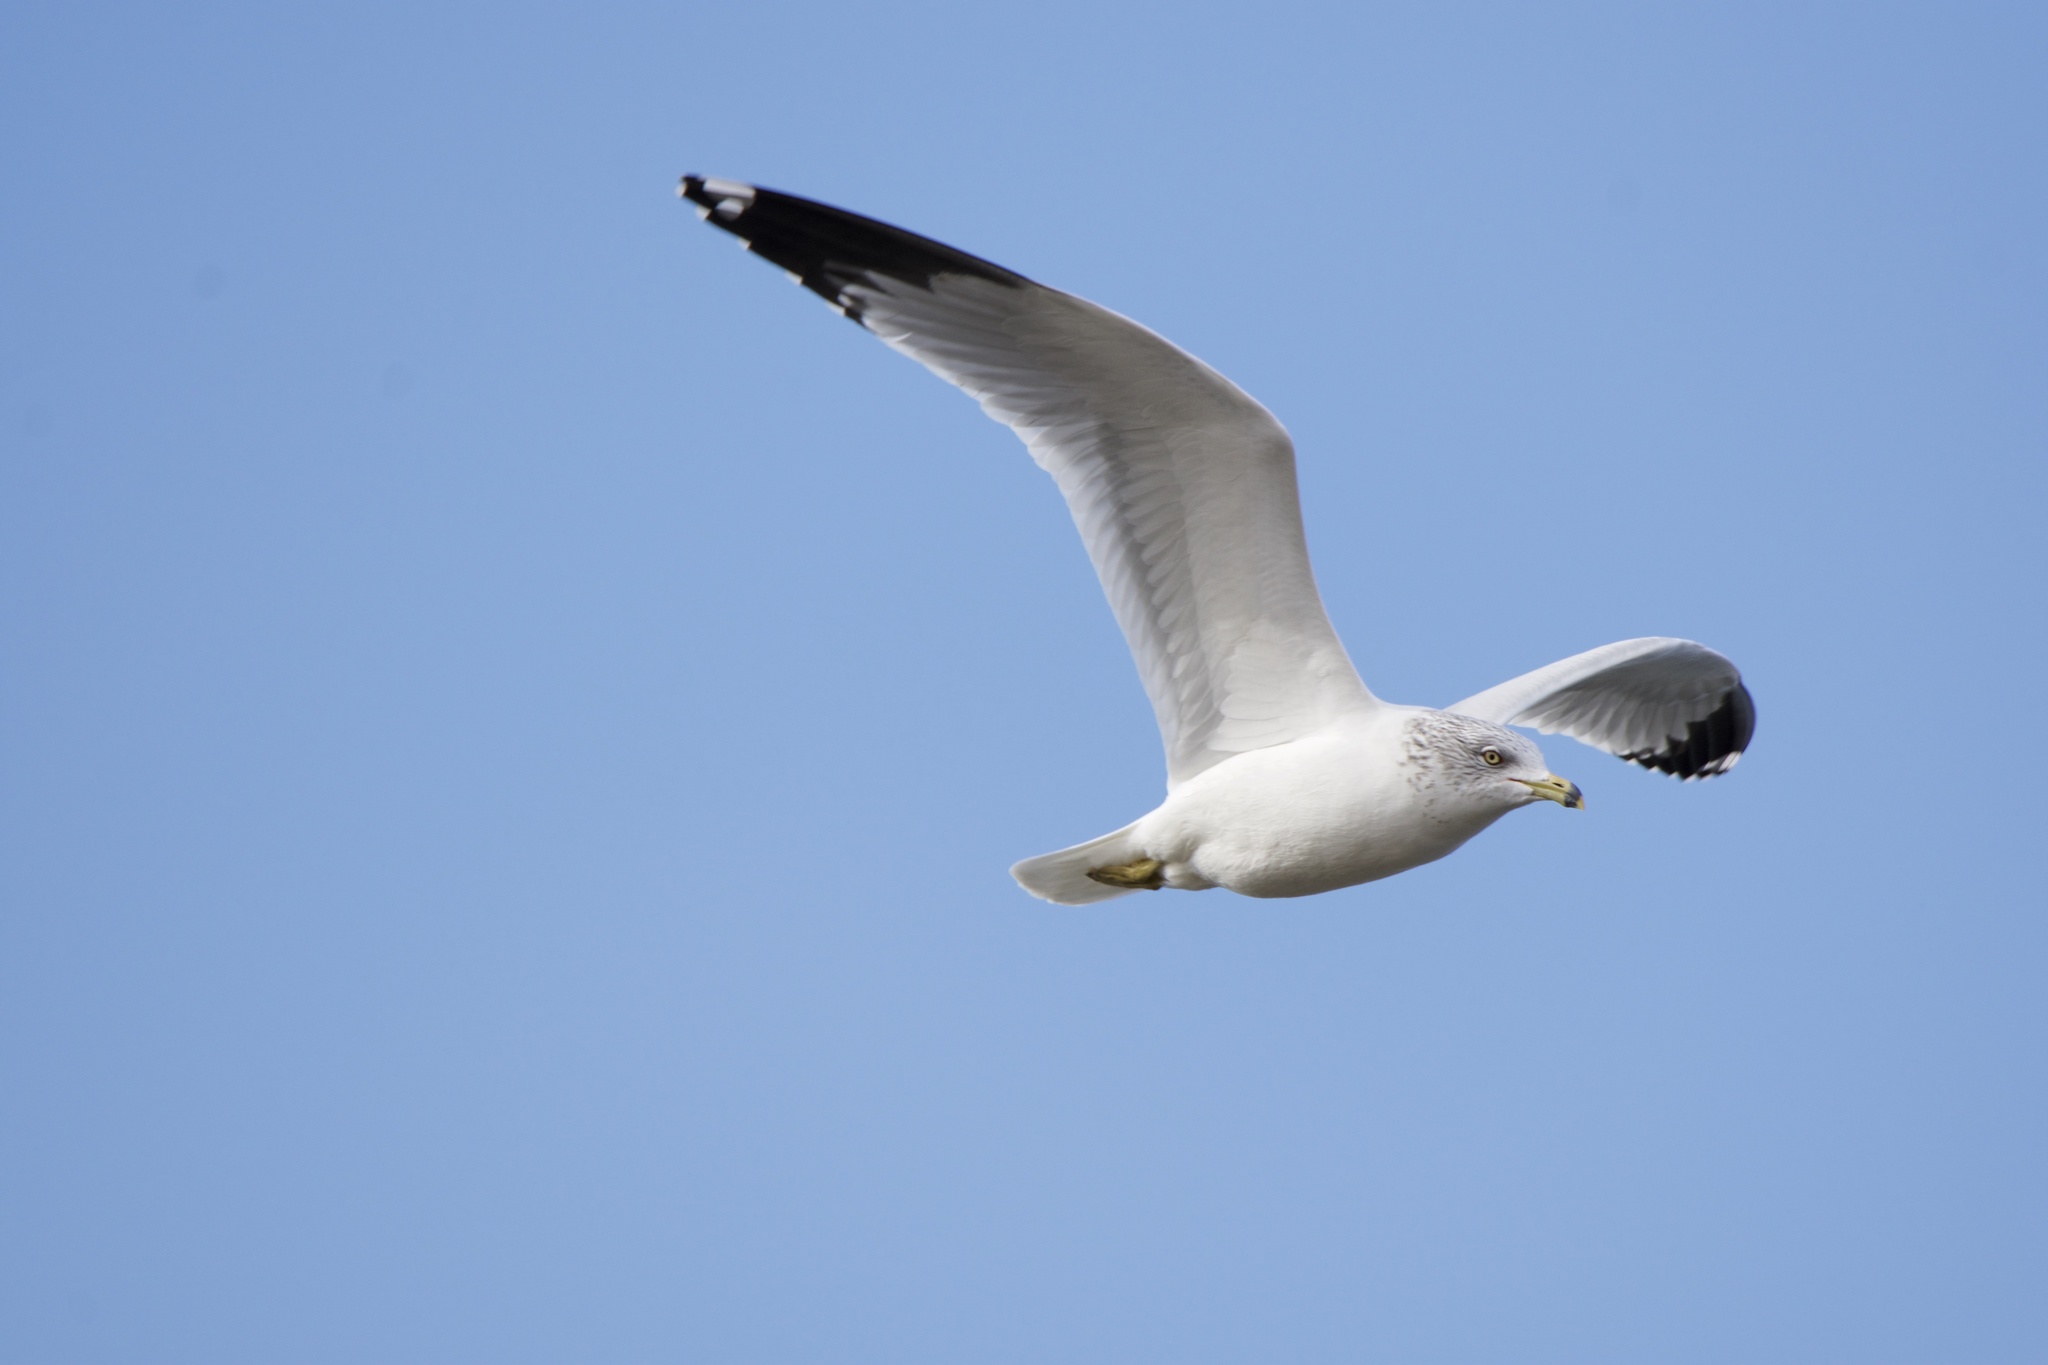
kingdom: Animalia
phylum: Chordata
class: Aves
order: Charadriiformes
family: Laridae
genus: Larus
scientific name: Larus delawarensis
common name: Ring-billed gull
